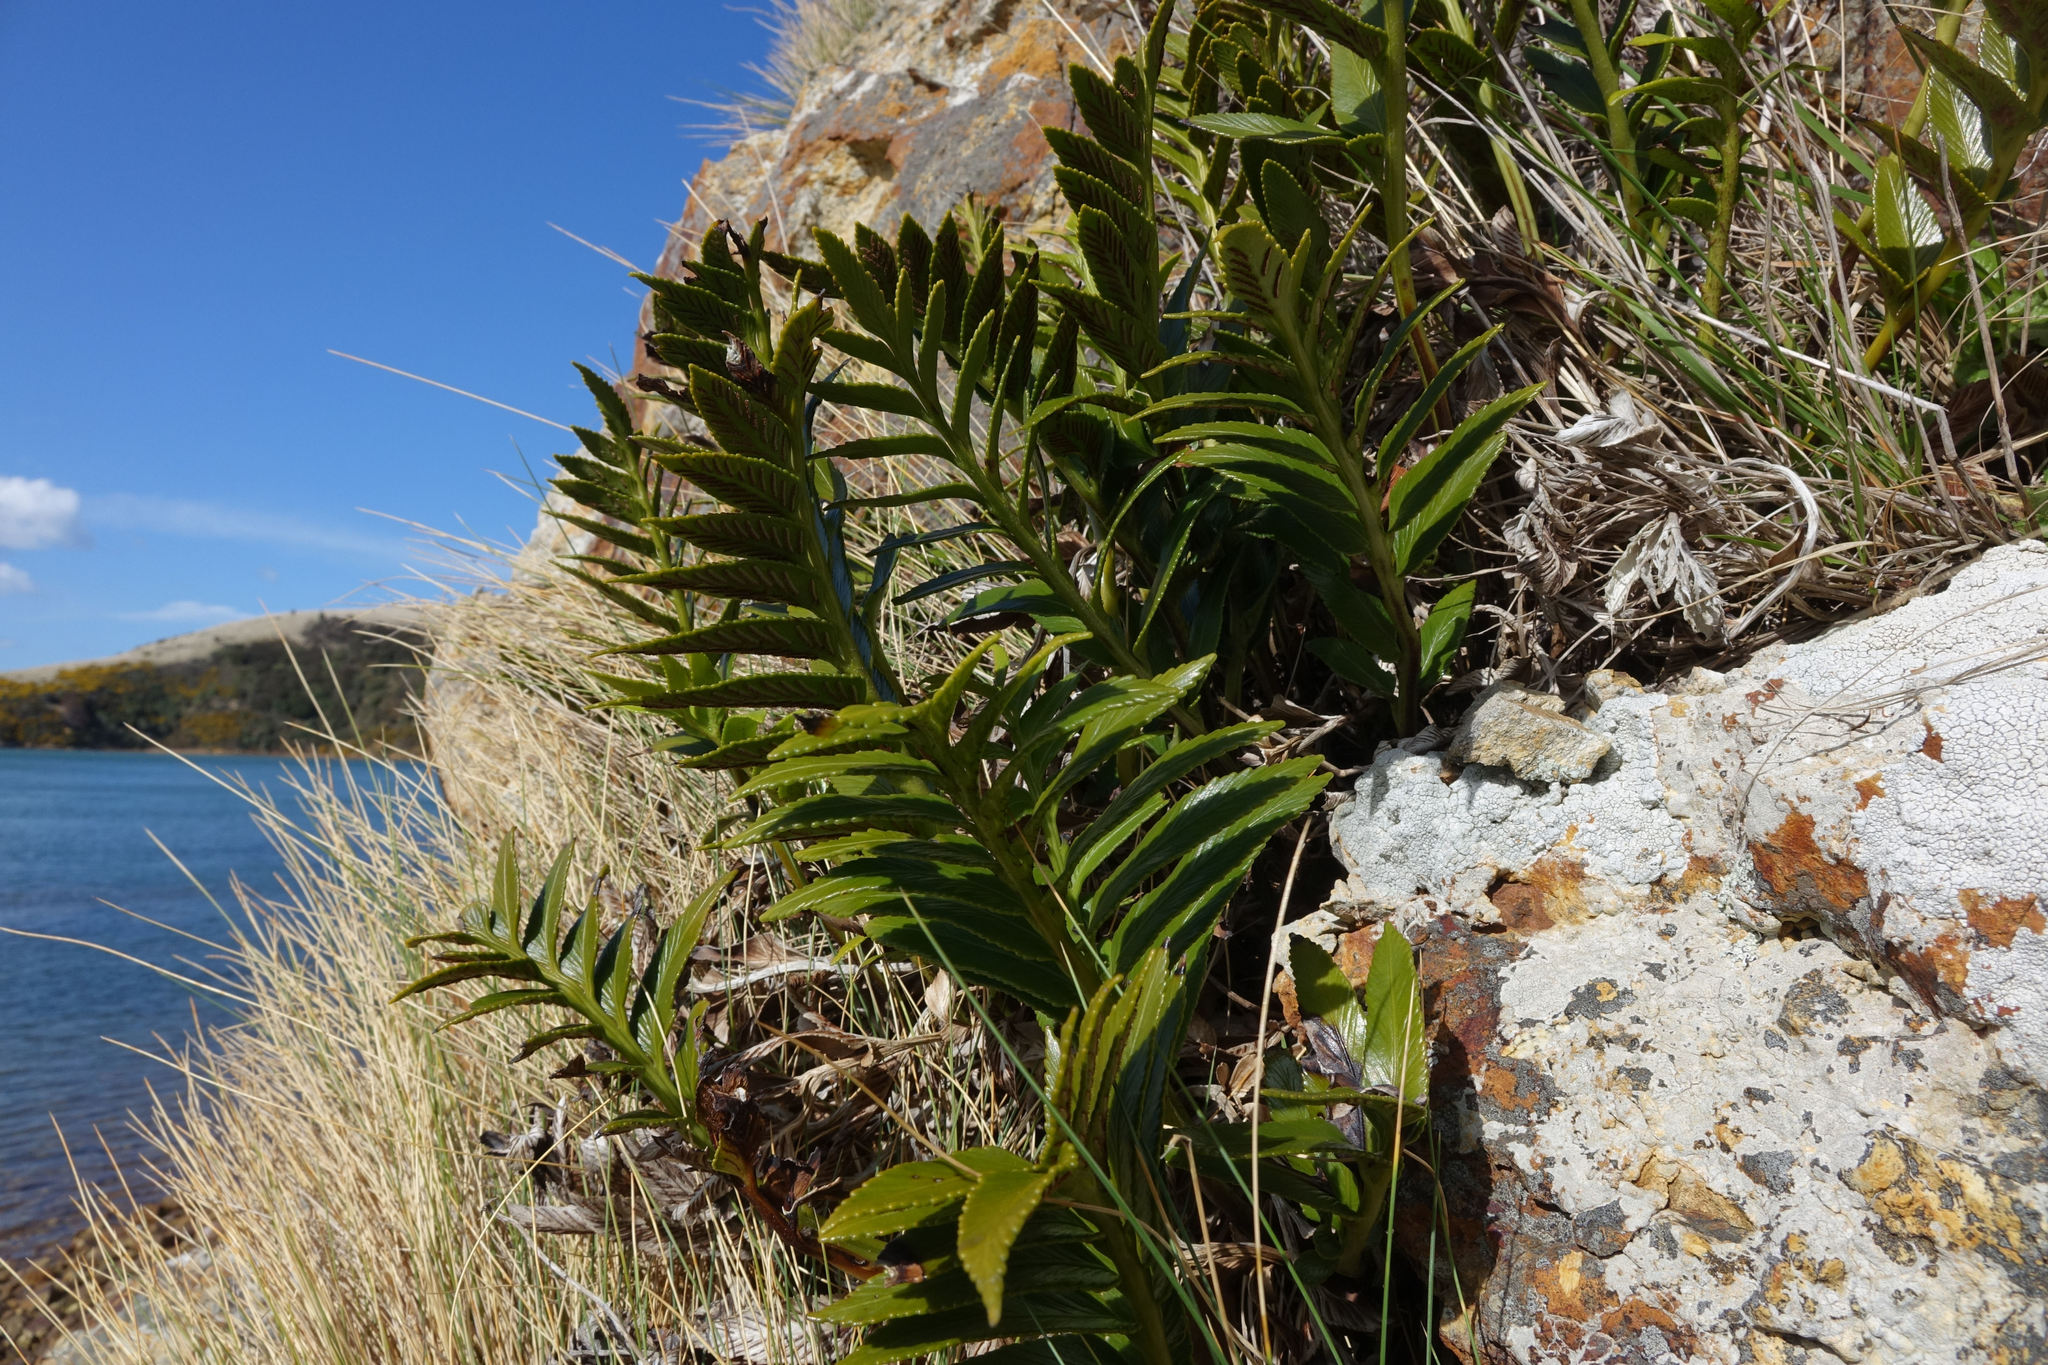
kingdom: Plantae
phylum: Tracheophyta
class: Polypodiopsida
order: Polypodiales
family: Aspleniaceae
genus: Asplenium
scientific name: Asplenium obtusatum
